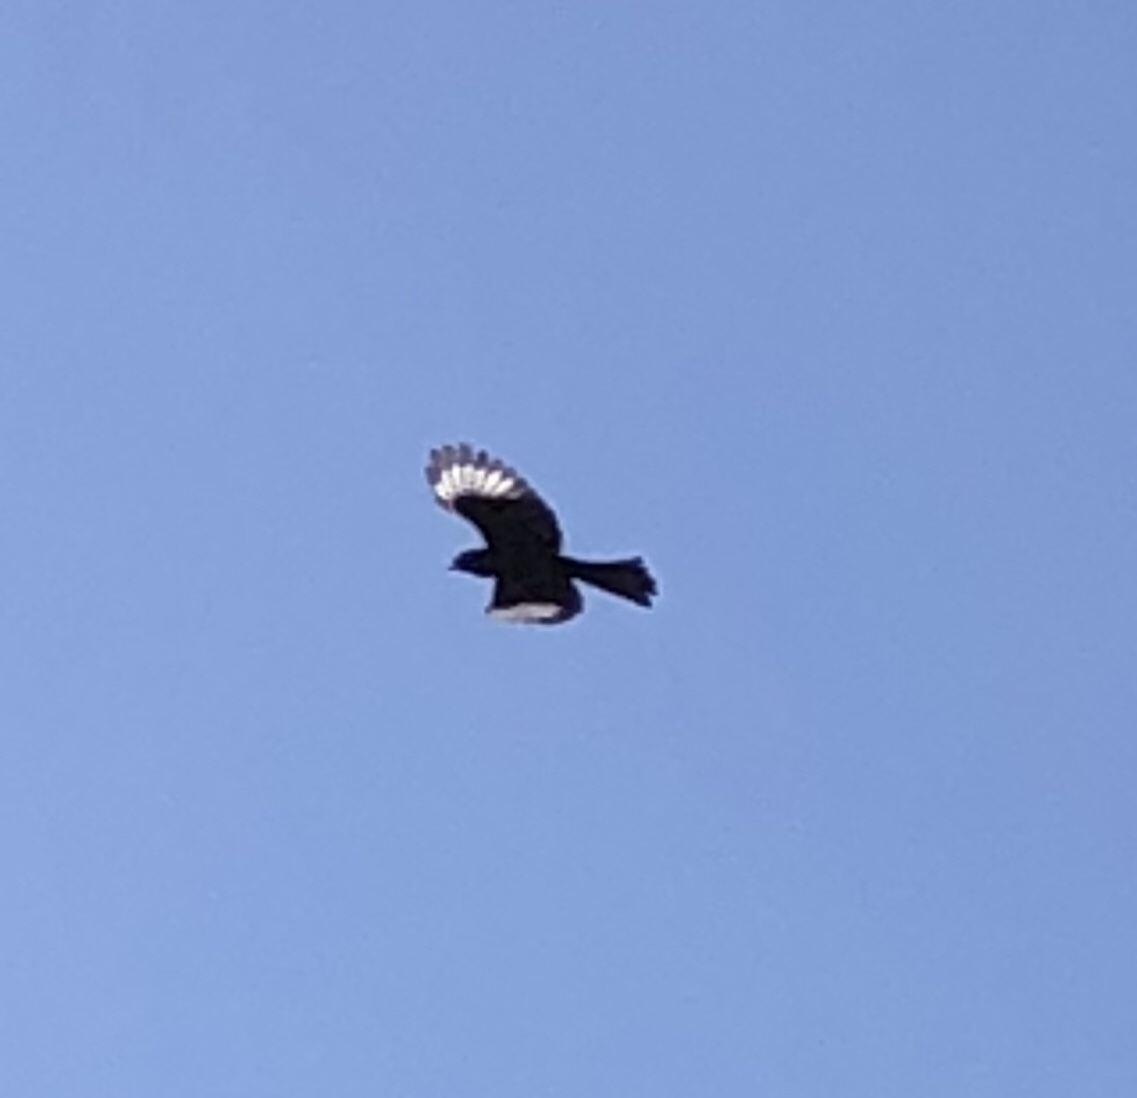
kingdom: Animalia
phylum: Chordata
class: Aves
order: Passeriformes
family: Ptilogonatidae
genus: Phainopepla
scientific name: Phainopepla nitens
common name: Phainopepla
